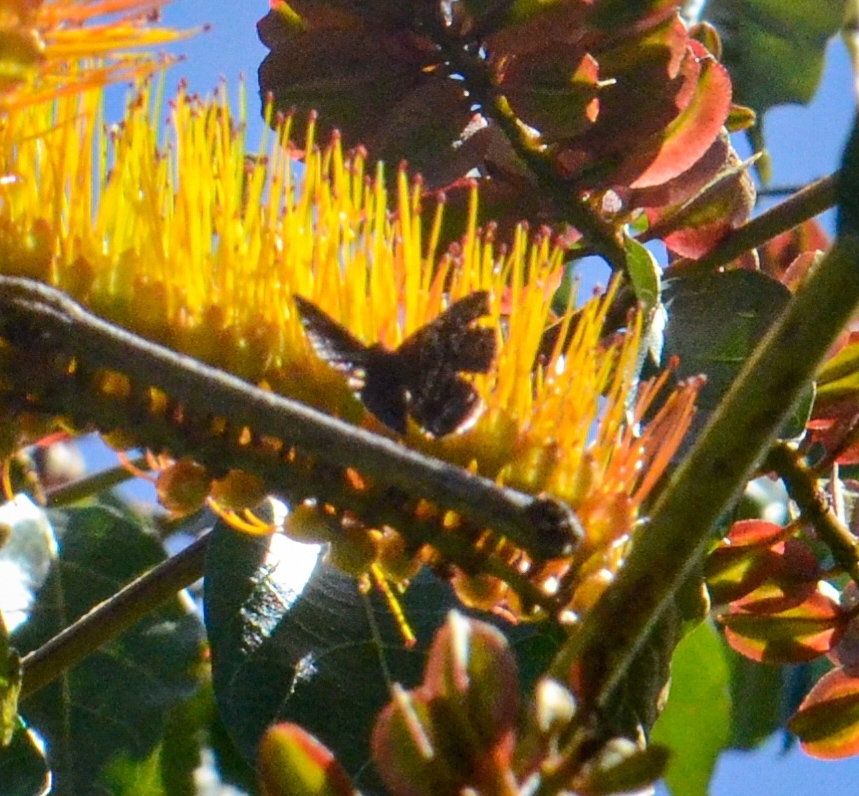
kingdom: Animalia
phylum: Arthropoda
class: Insecta
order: Lepidoptera
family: Riodinidae
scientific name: Riodinidae
